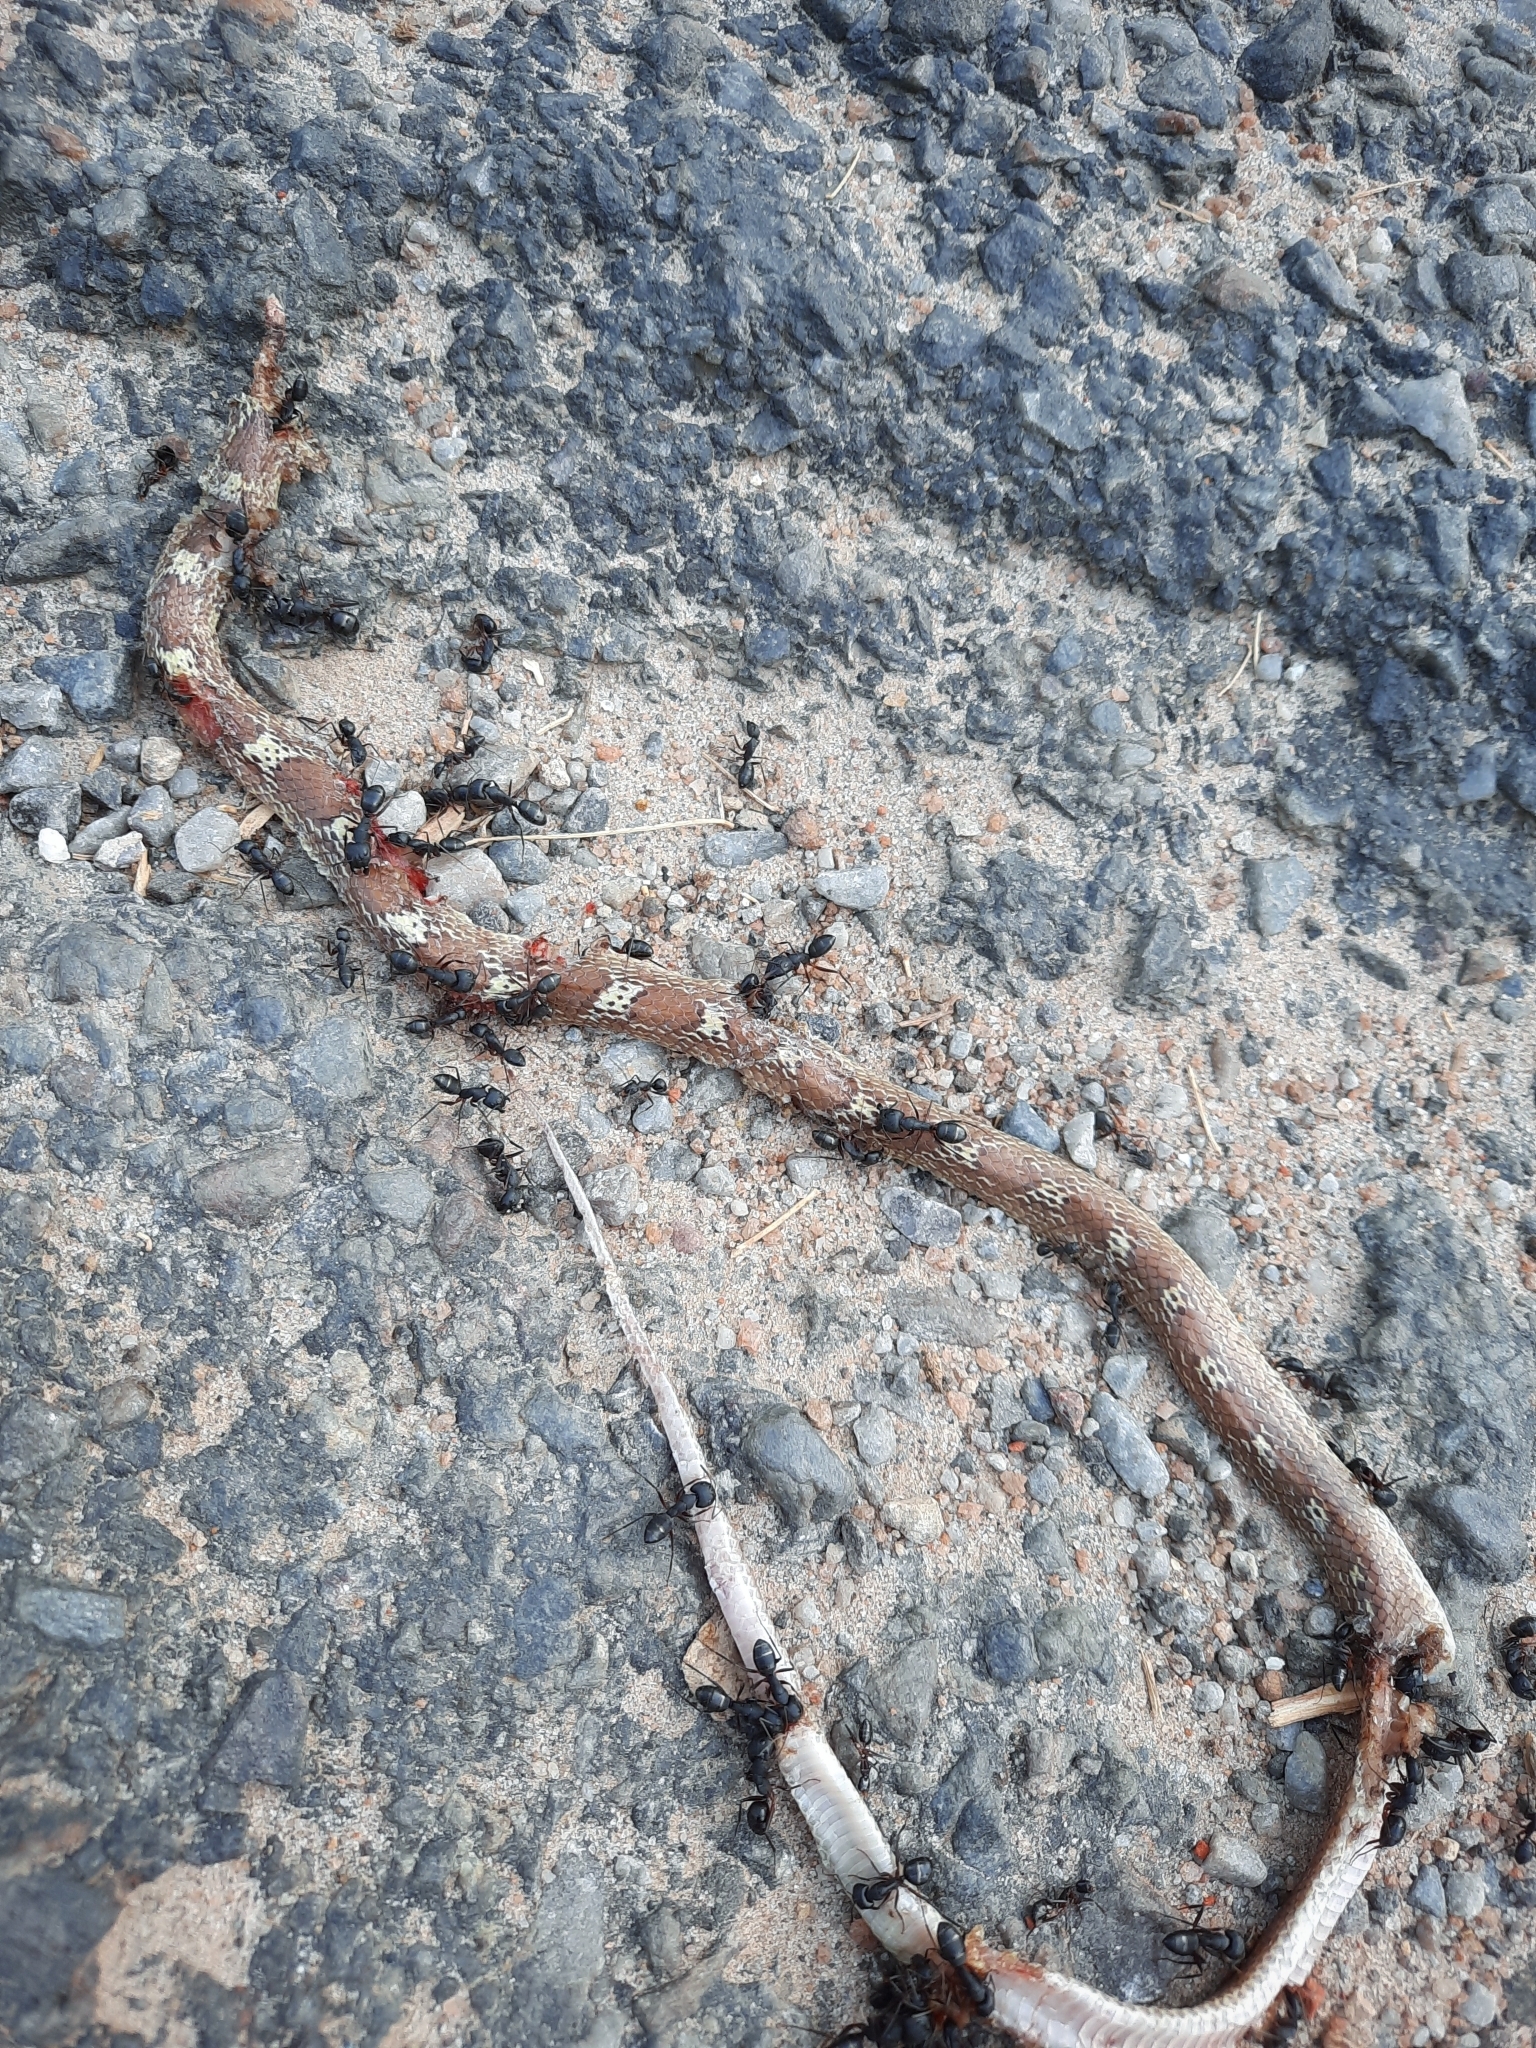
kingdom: Animalia
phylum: Chordata
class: Squamata
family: Colubridae
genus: Lycodon
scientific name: Lycodon aulicus
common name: Common wolf snake
